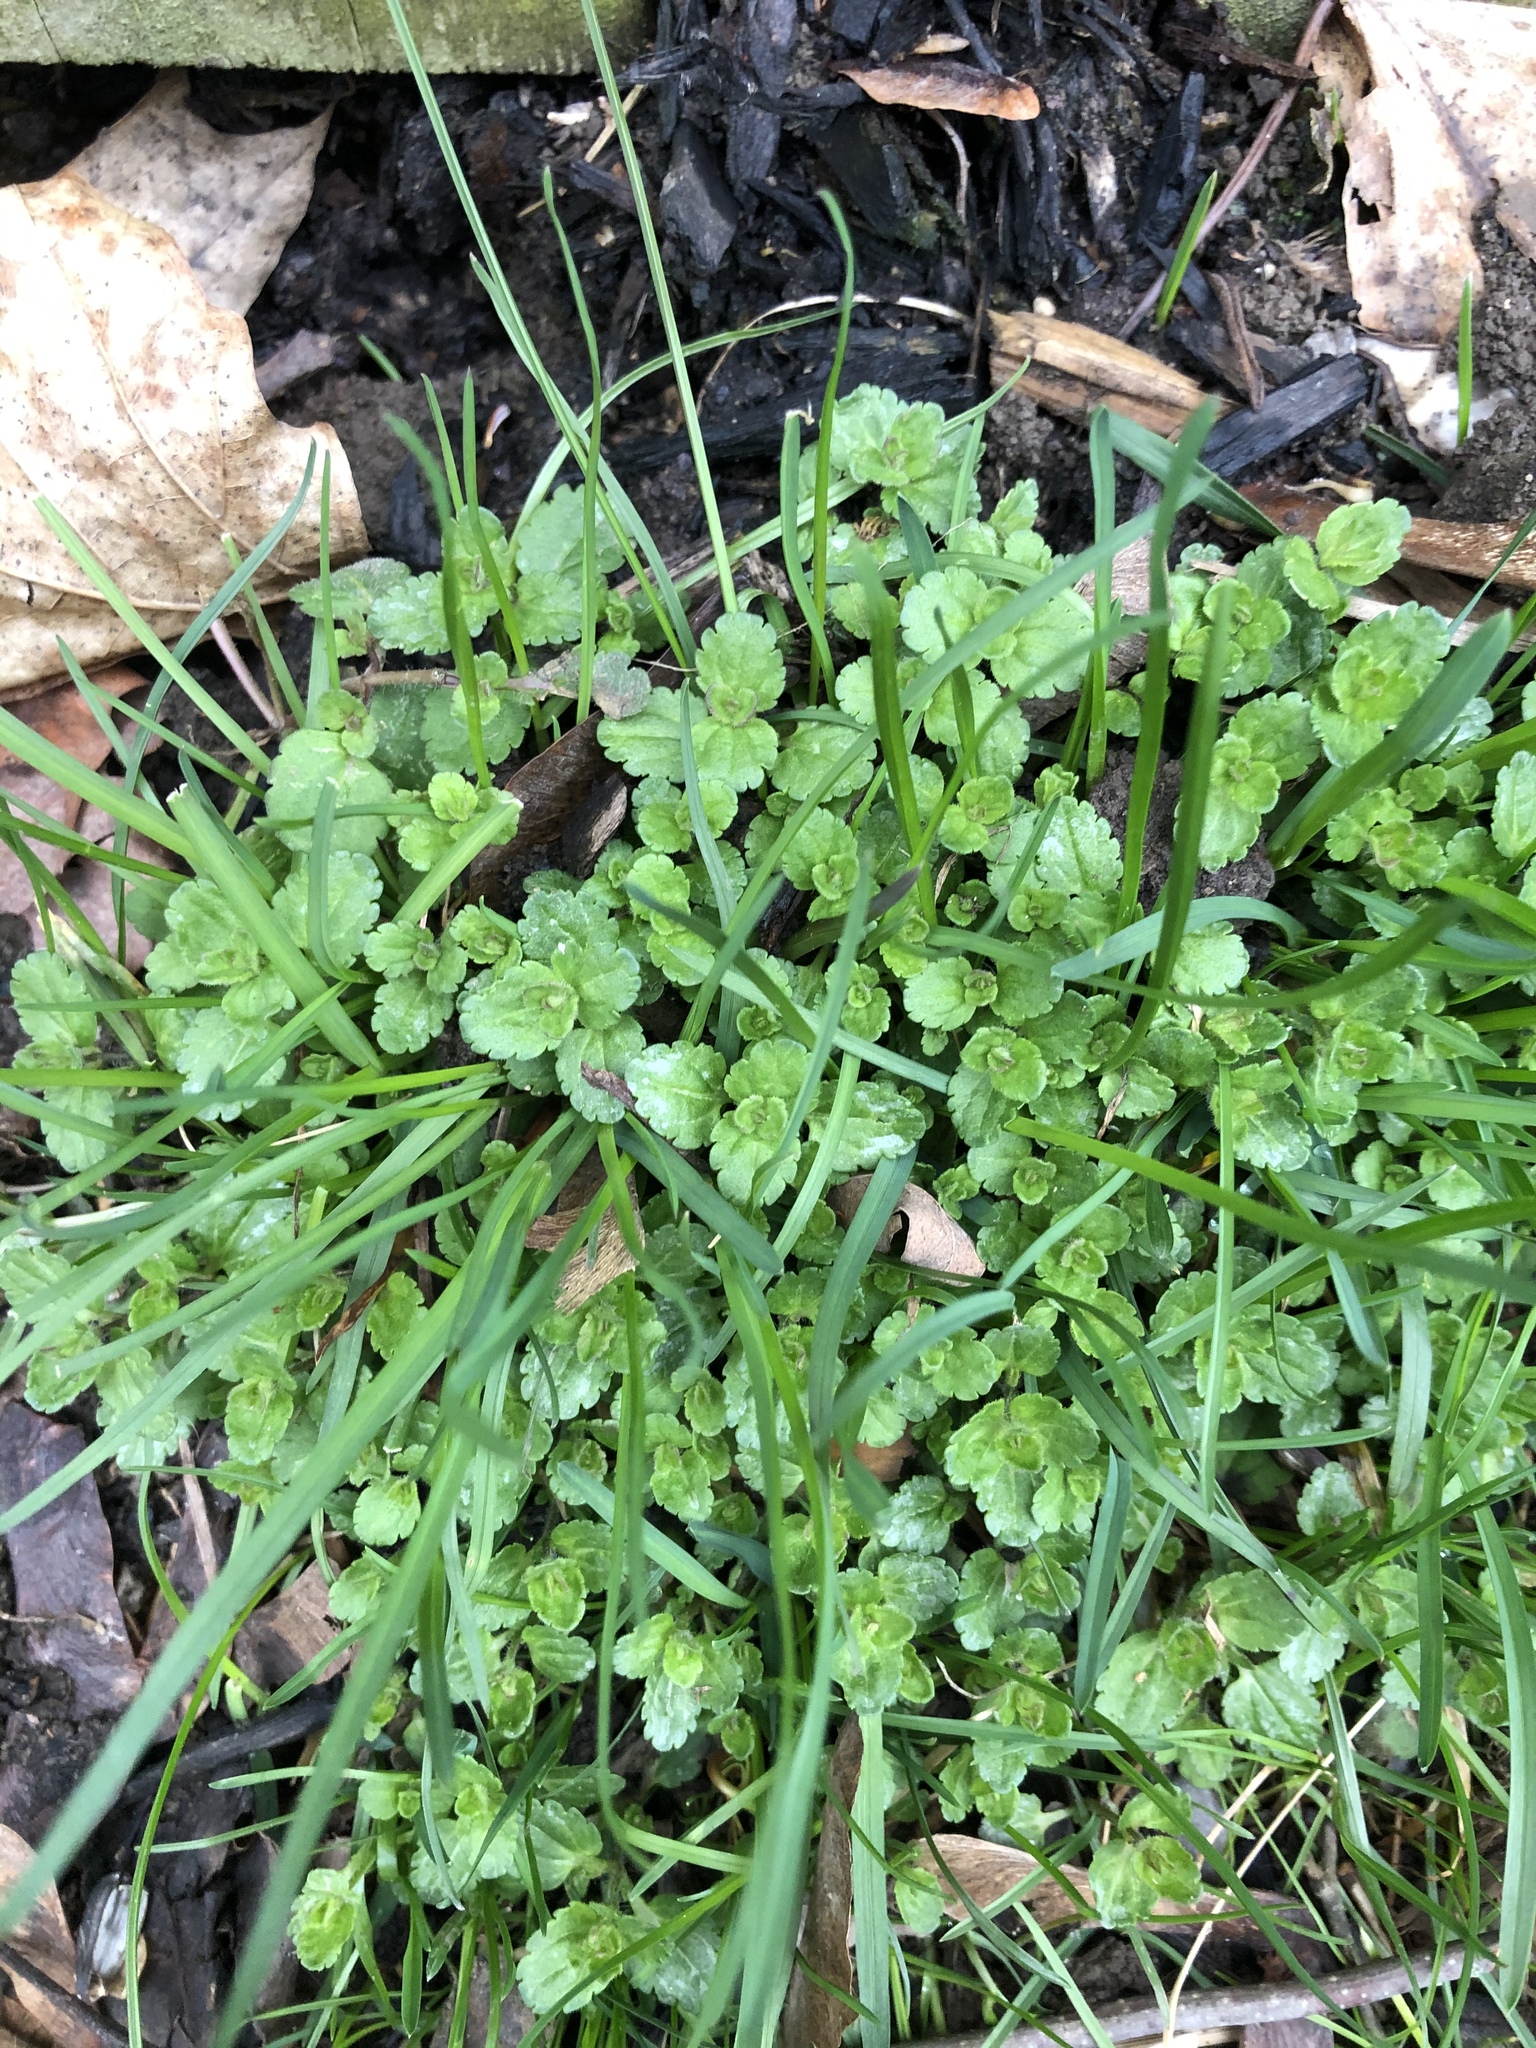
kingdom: Plantae
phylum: Tracheophyta
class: Magnoliopsida
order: Lamiales
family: Plantaginaceae
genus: Veronica
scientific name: Veronica arvensis
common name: Corn speedwell
